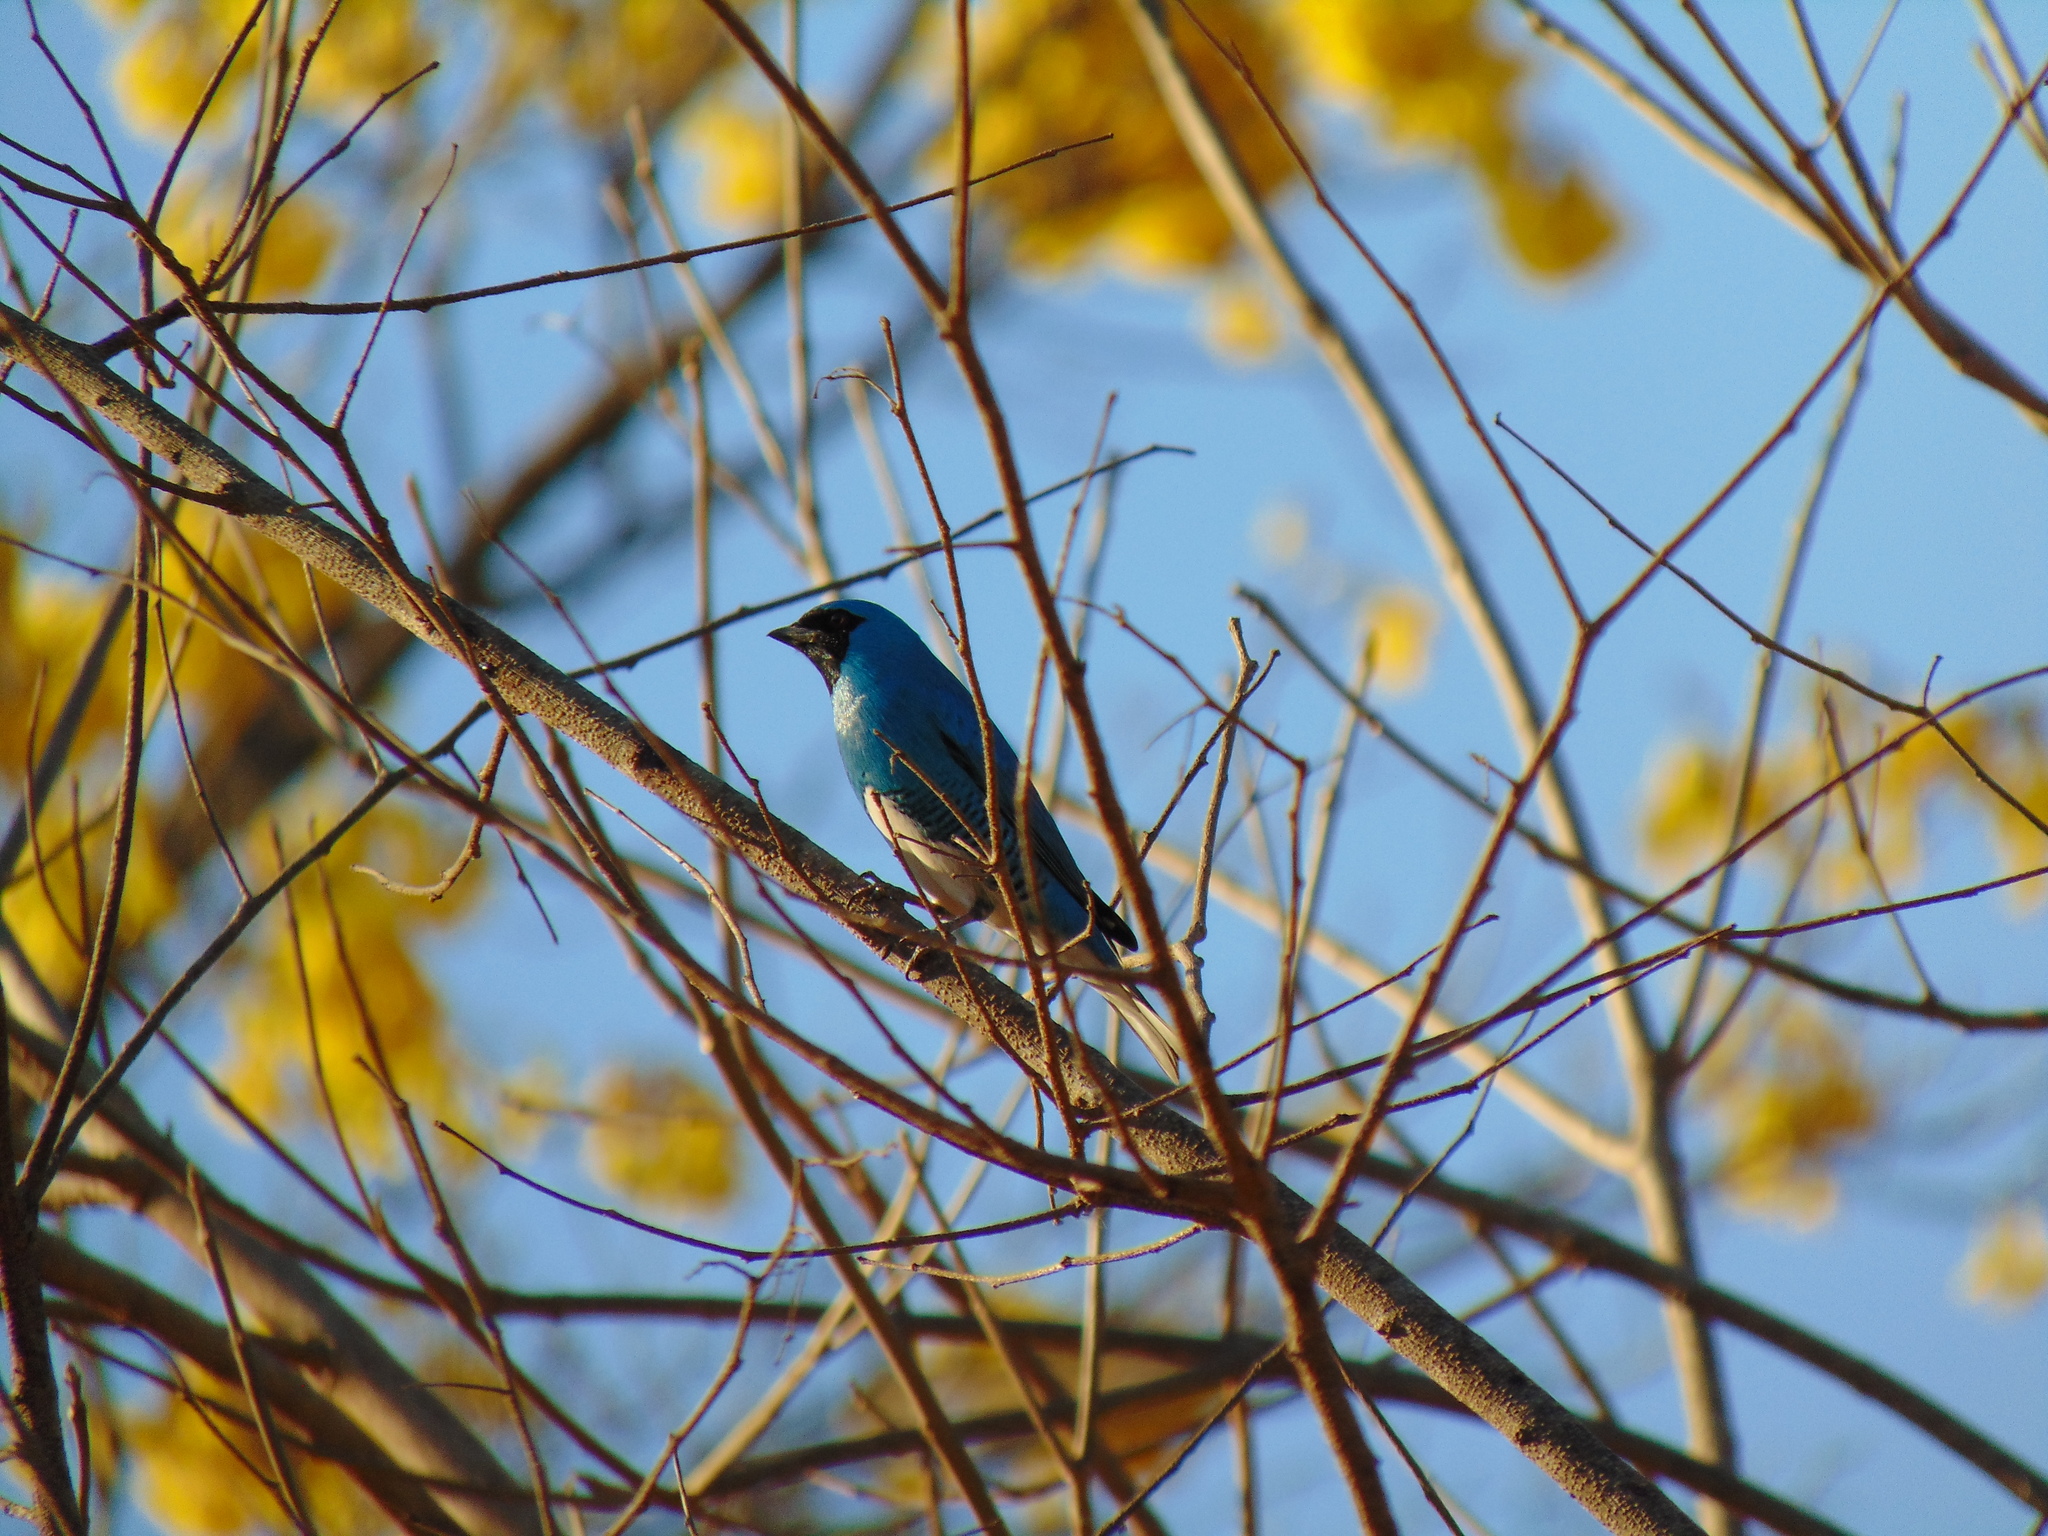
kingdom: Animalia
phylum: Chordata
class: Aves
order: Passeriformes
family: Thraupidae
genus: Tersina
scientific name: Tersina viridis
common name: Swallow tanager
